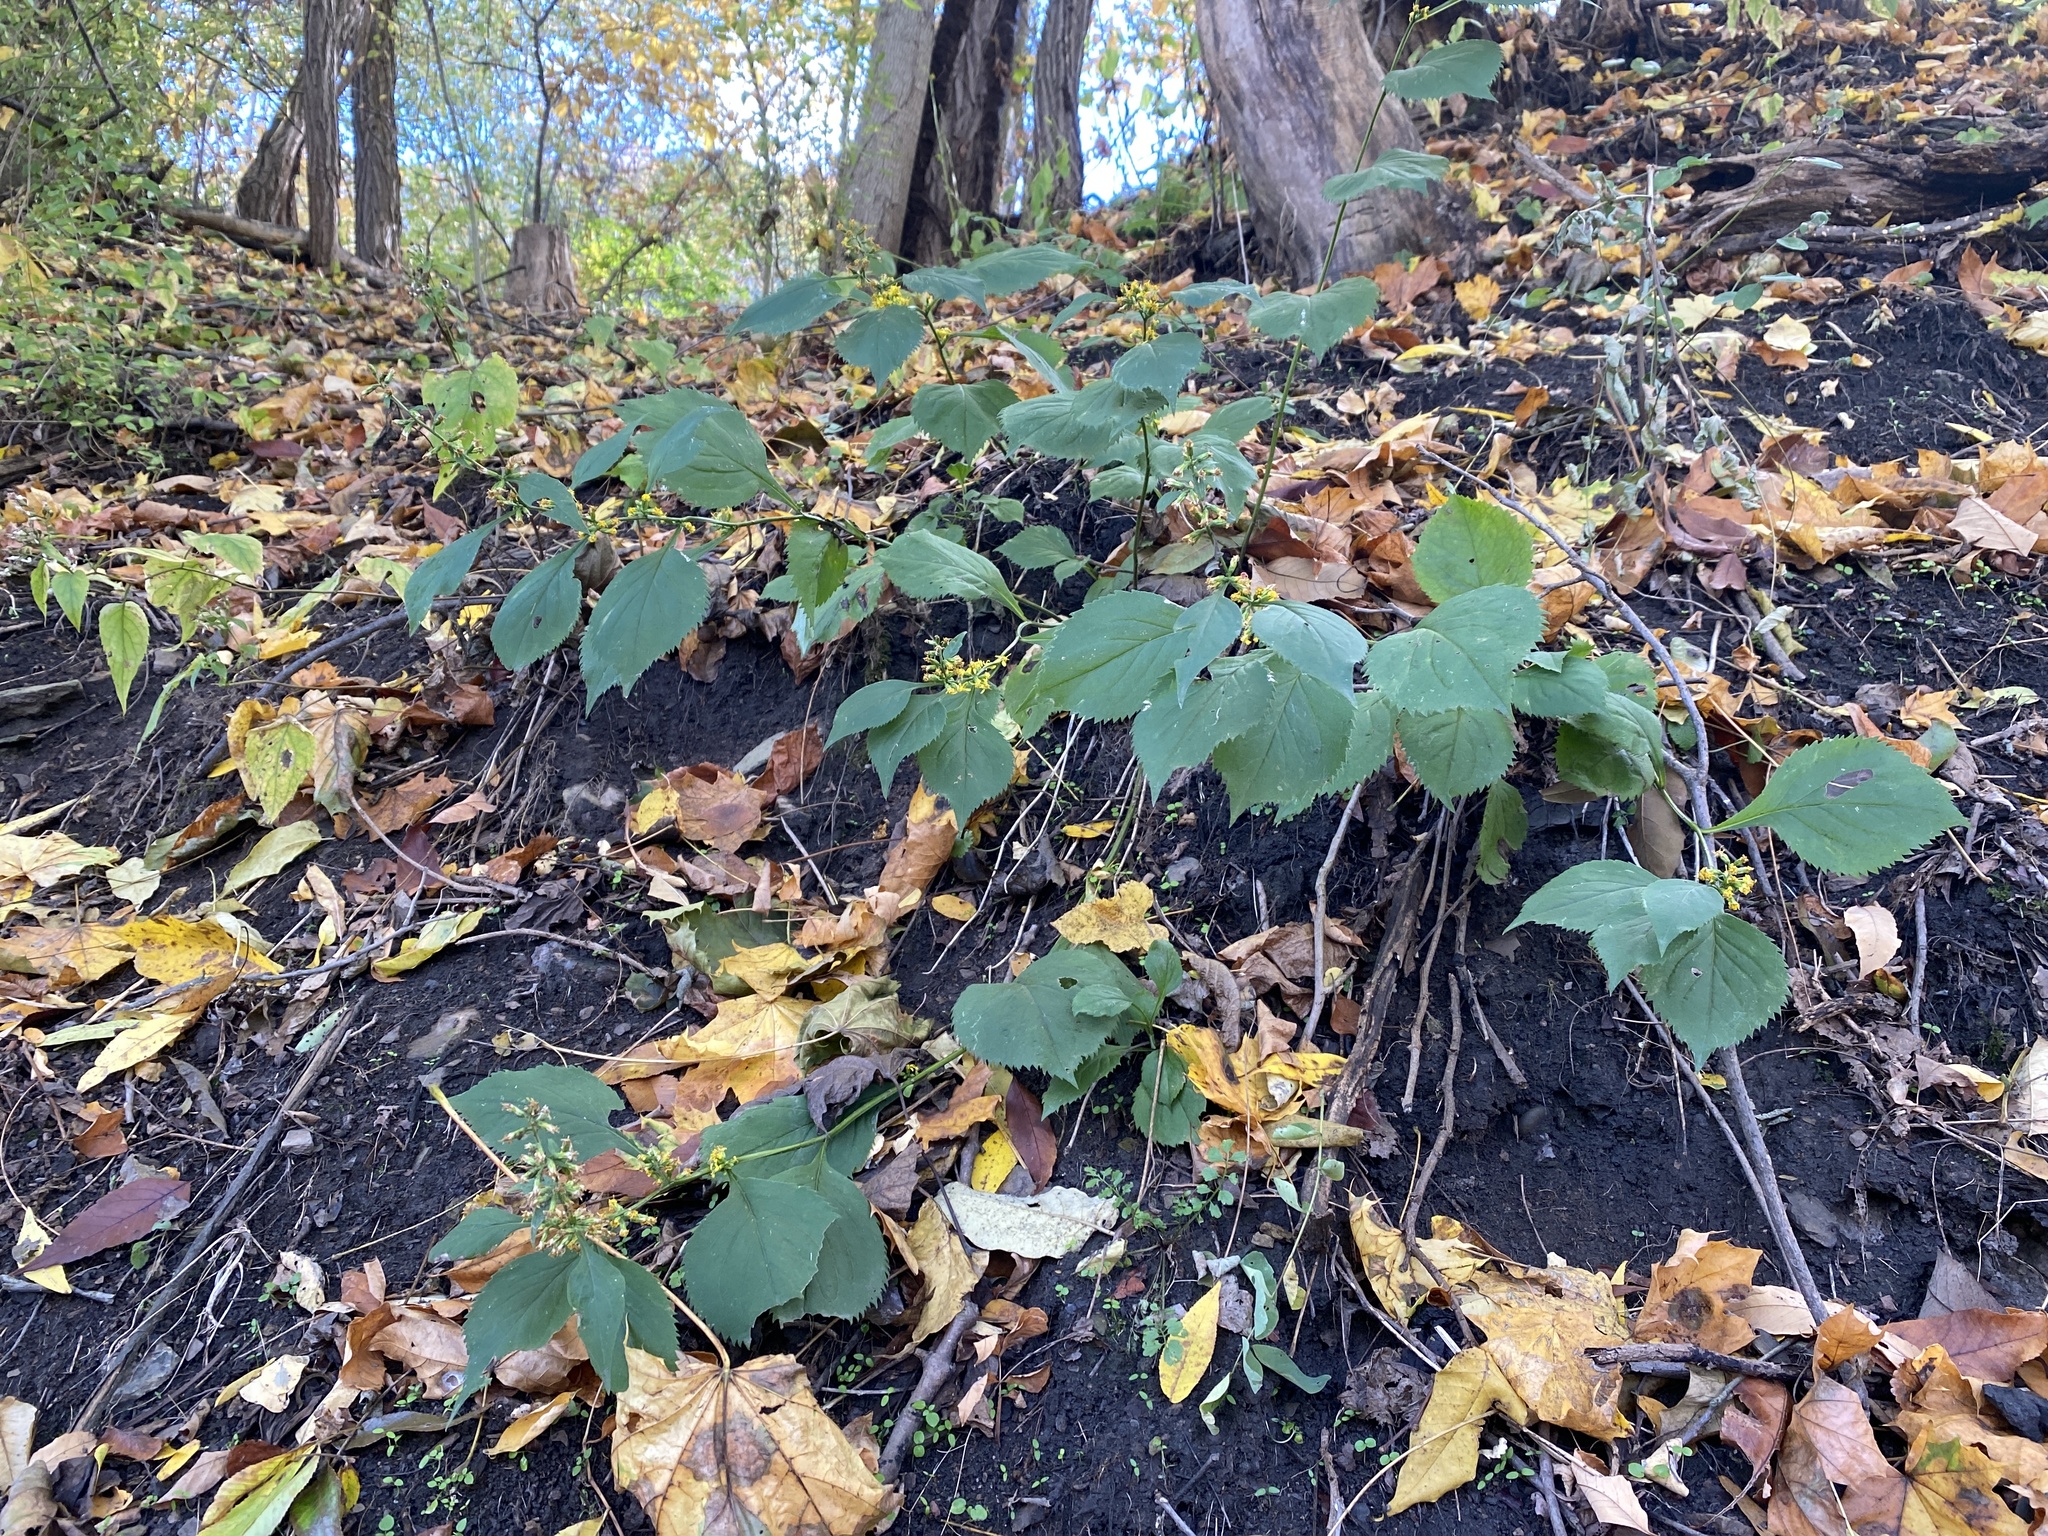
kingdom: Plantae
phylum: Tracheophyta
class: Magnoliopsida
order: Asterales
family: Asteraceae
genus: Solidago
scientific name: Solidago flexicaulis
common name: Zig-zag goldenrod
